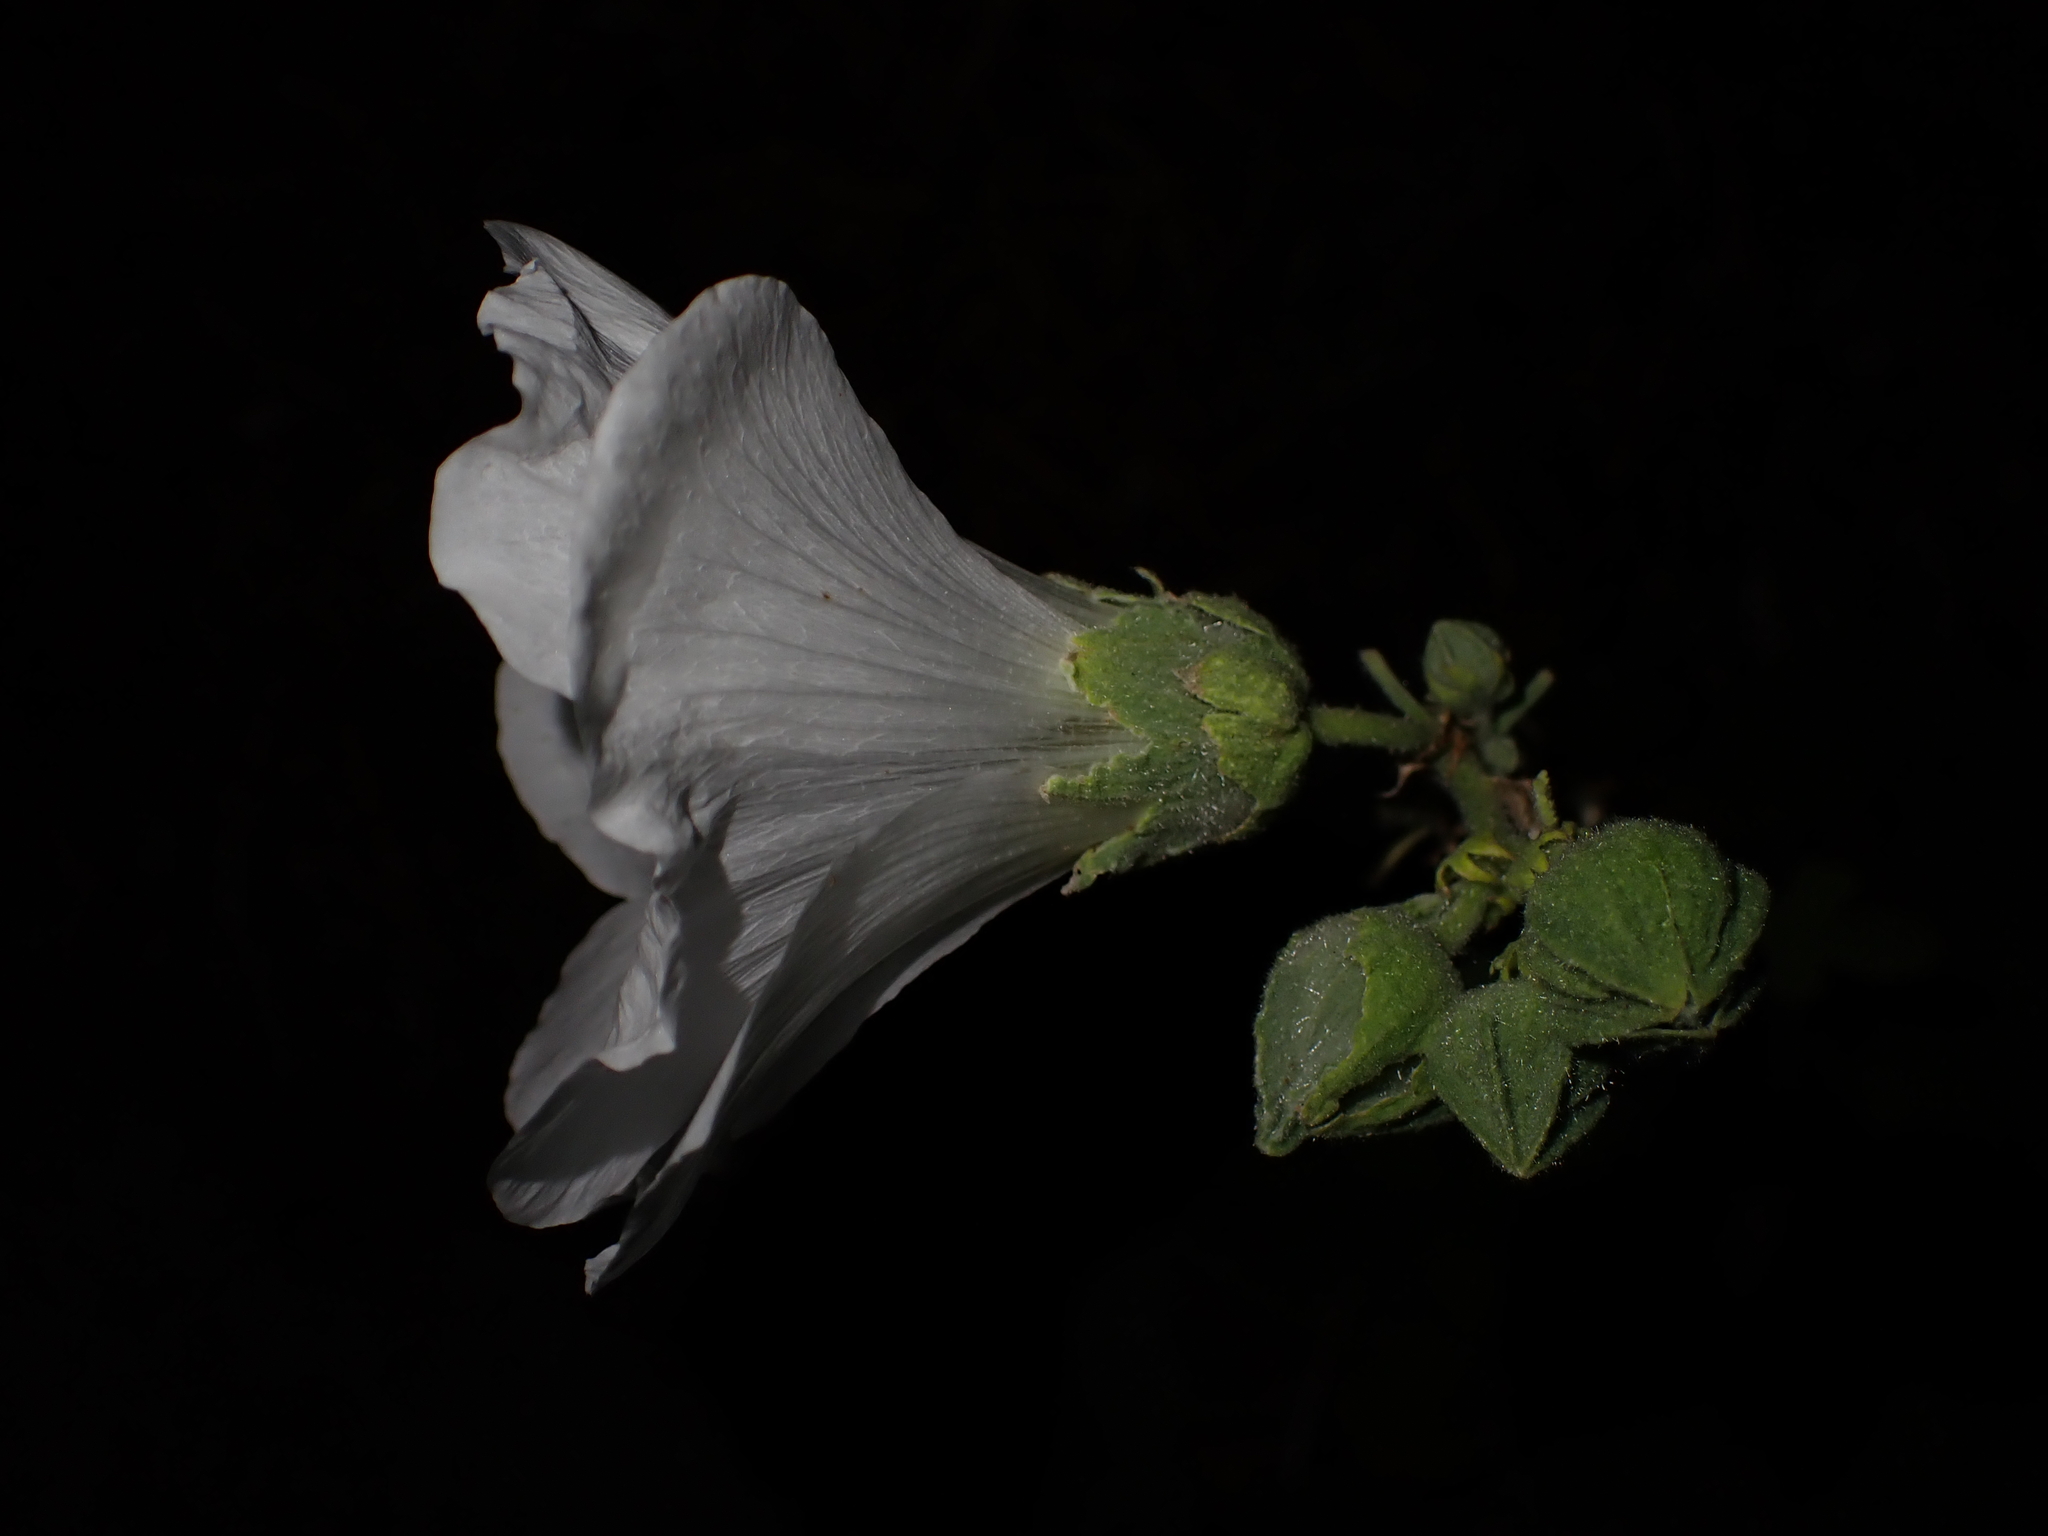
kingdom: Plantae
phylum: Tracheophyta
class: Magnoliopsida
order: Malvales
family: Malvaceae
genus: Alcea
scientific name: Alcea rosea
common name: Hollyhock
